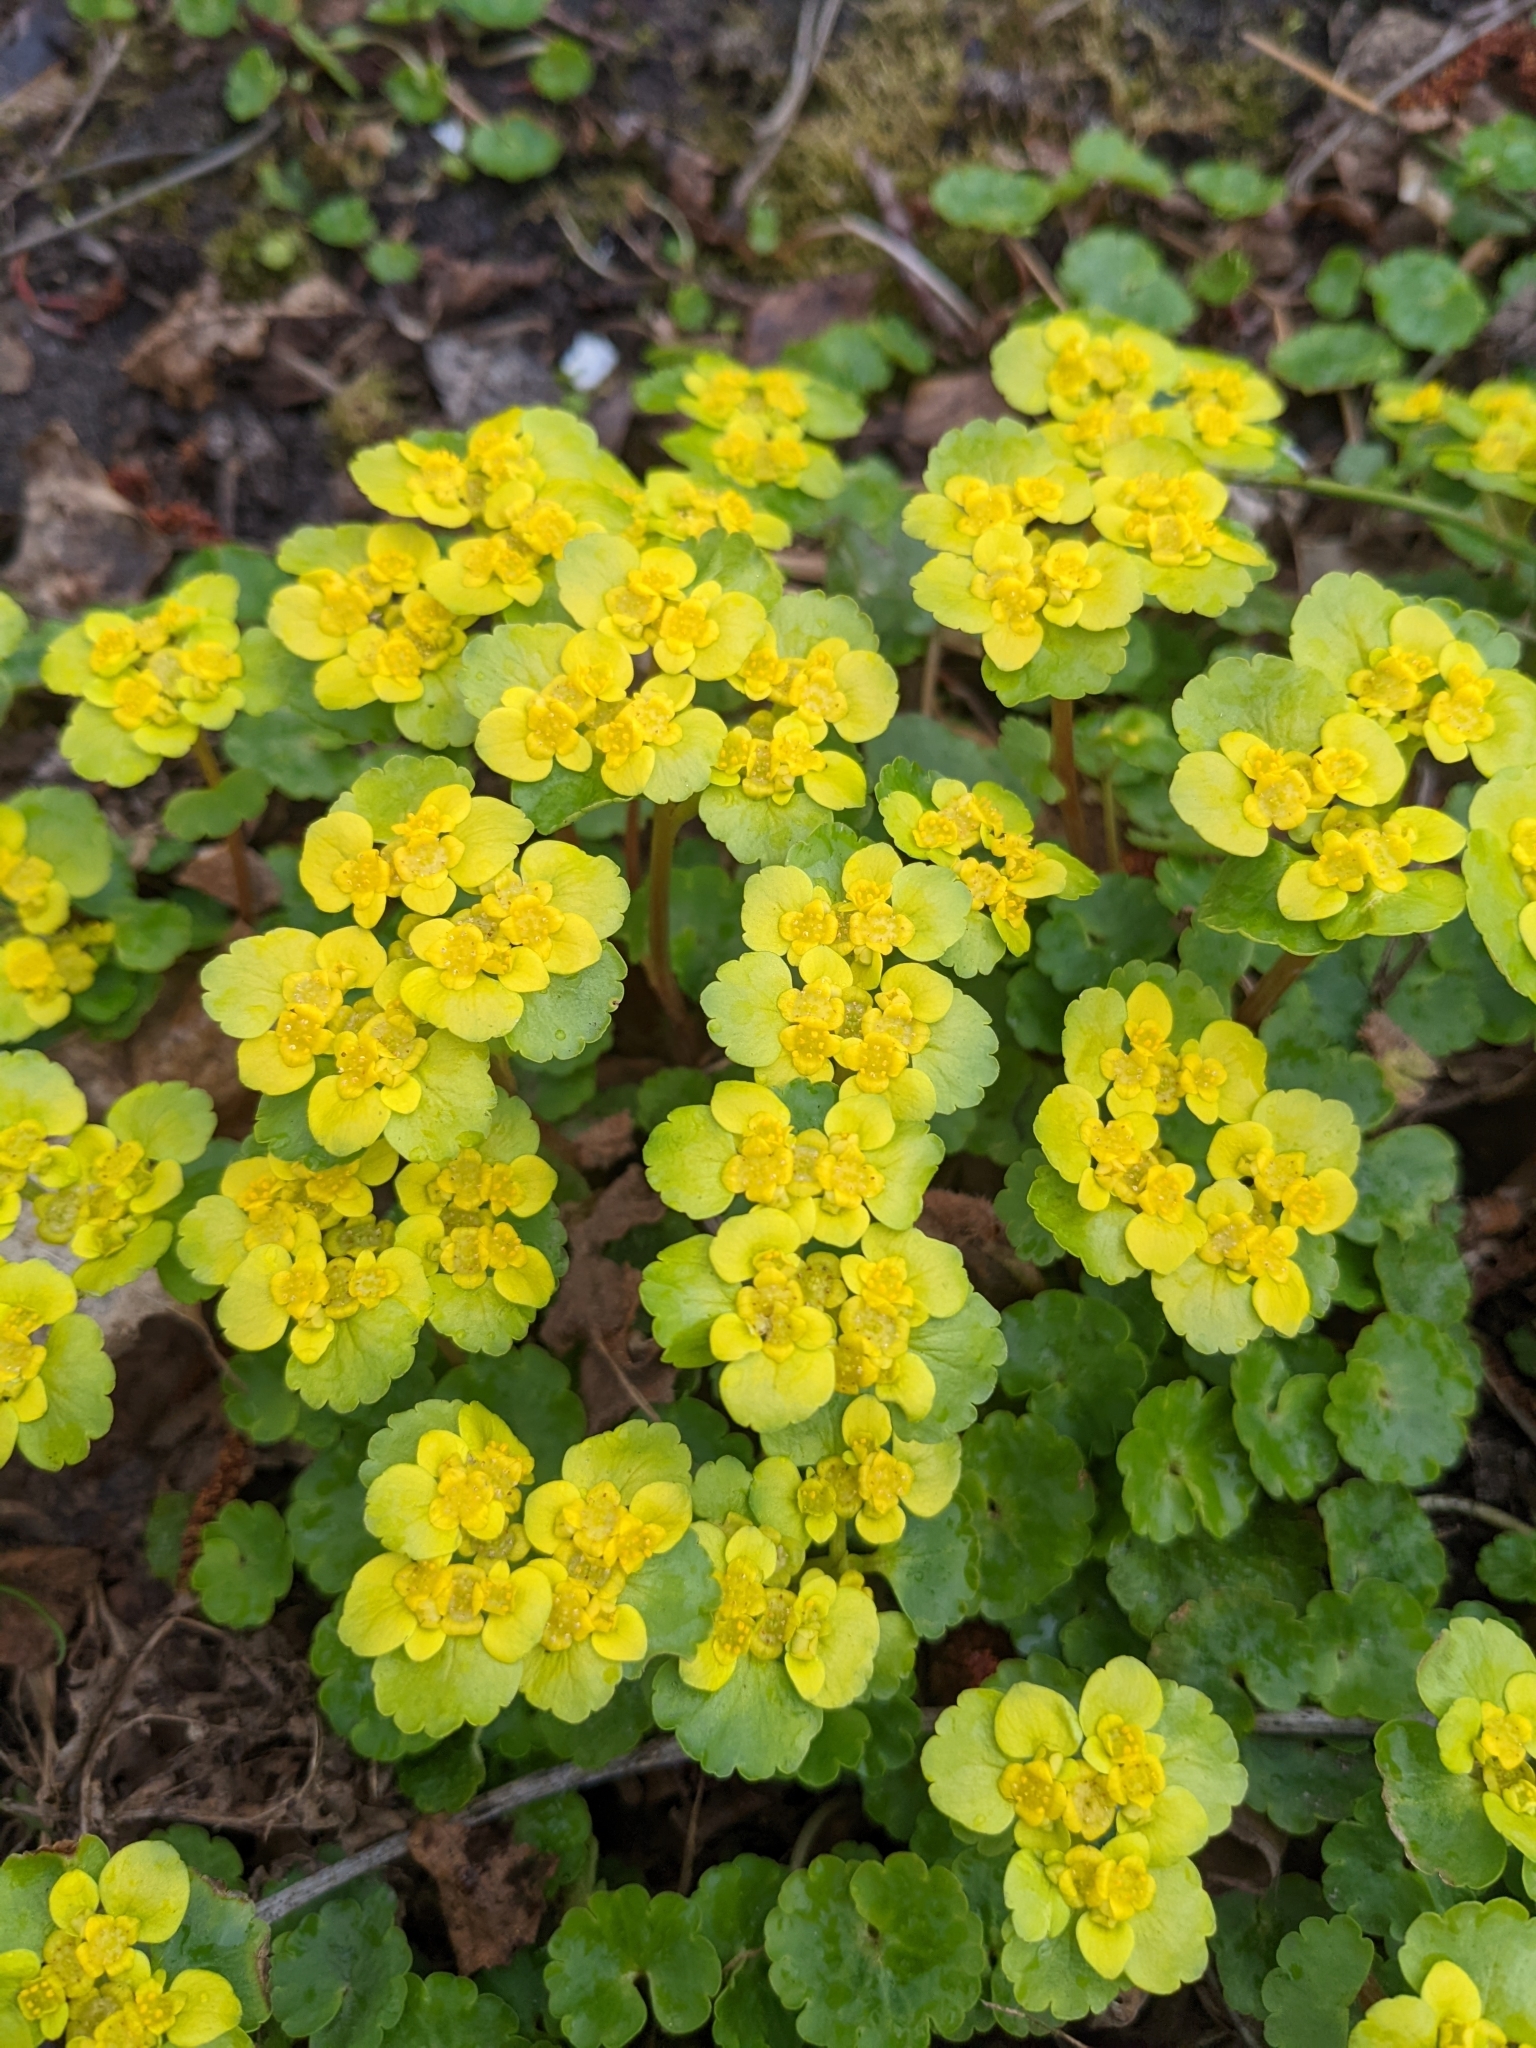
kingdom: Plantae
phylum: Tracheophyta
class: Magnoliopsida
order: Saxifragales
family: Saxifragaceae
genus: Chrysosplenium
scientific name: Chrysosplenium alternifolium
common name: Alternate-leaved golden-saxifrage
